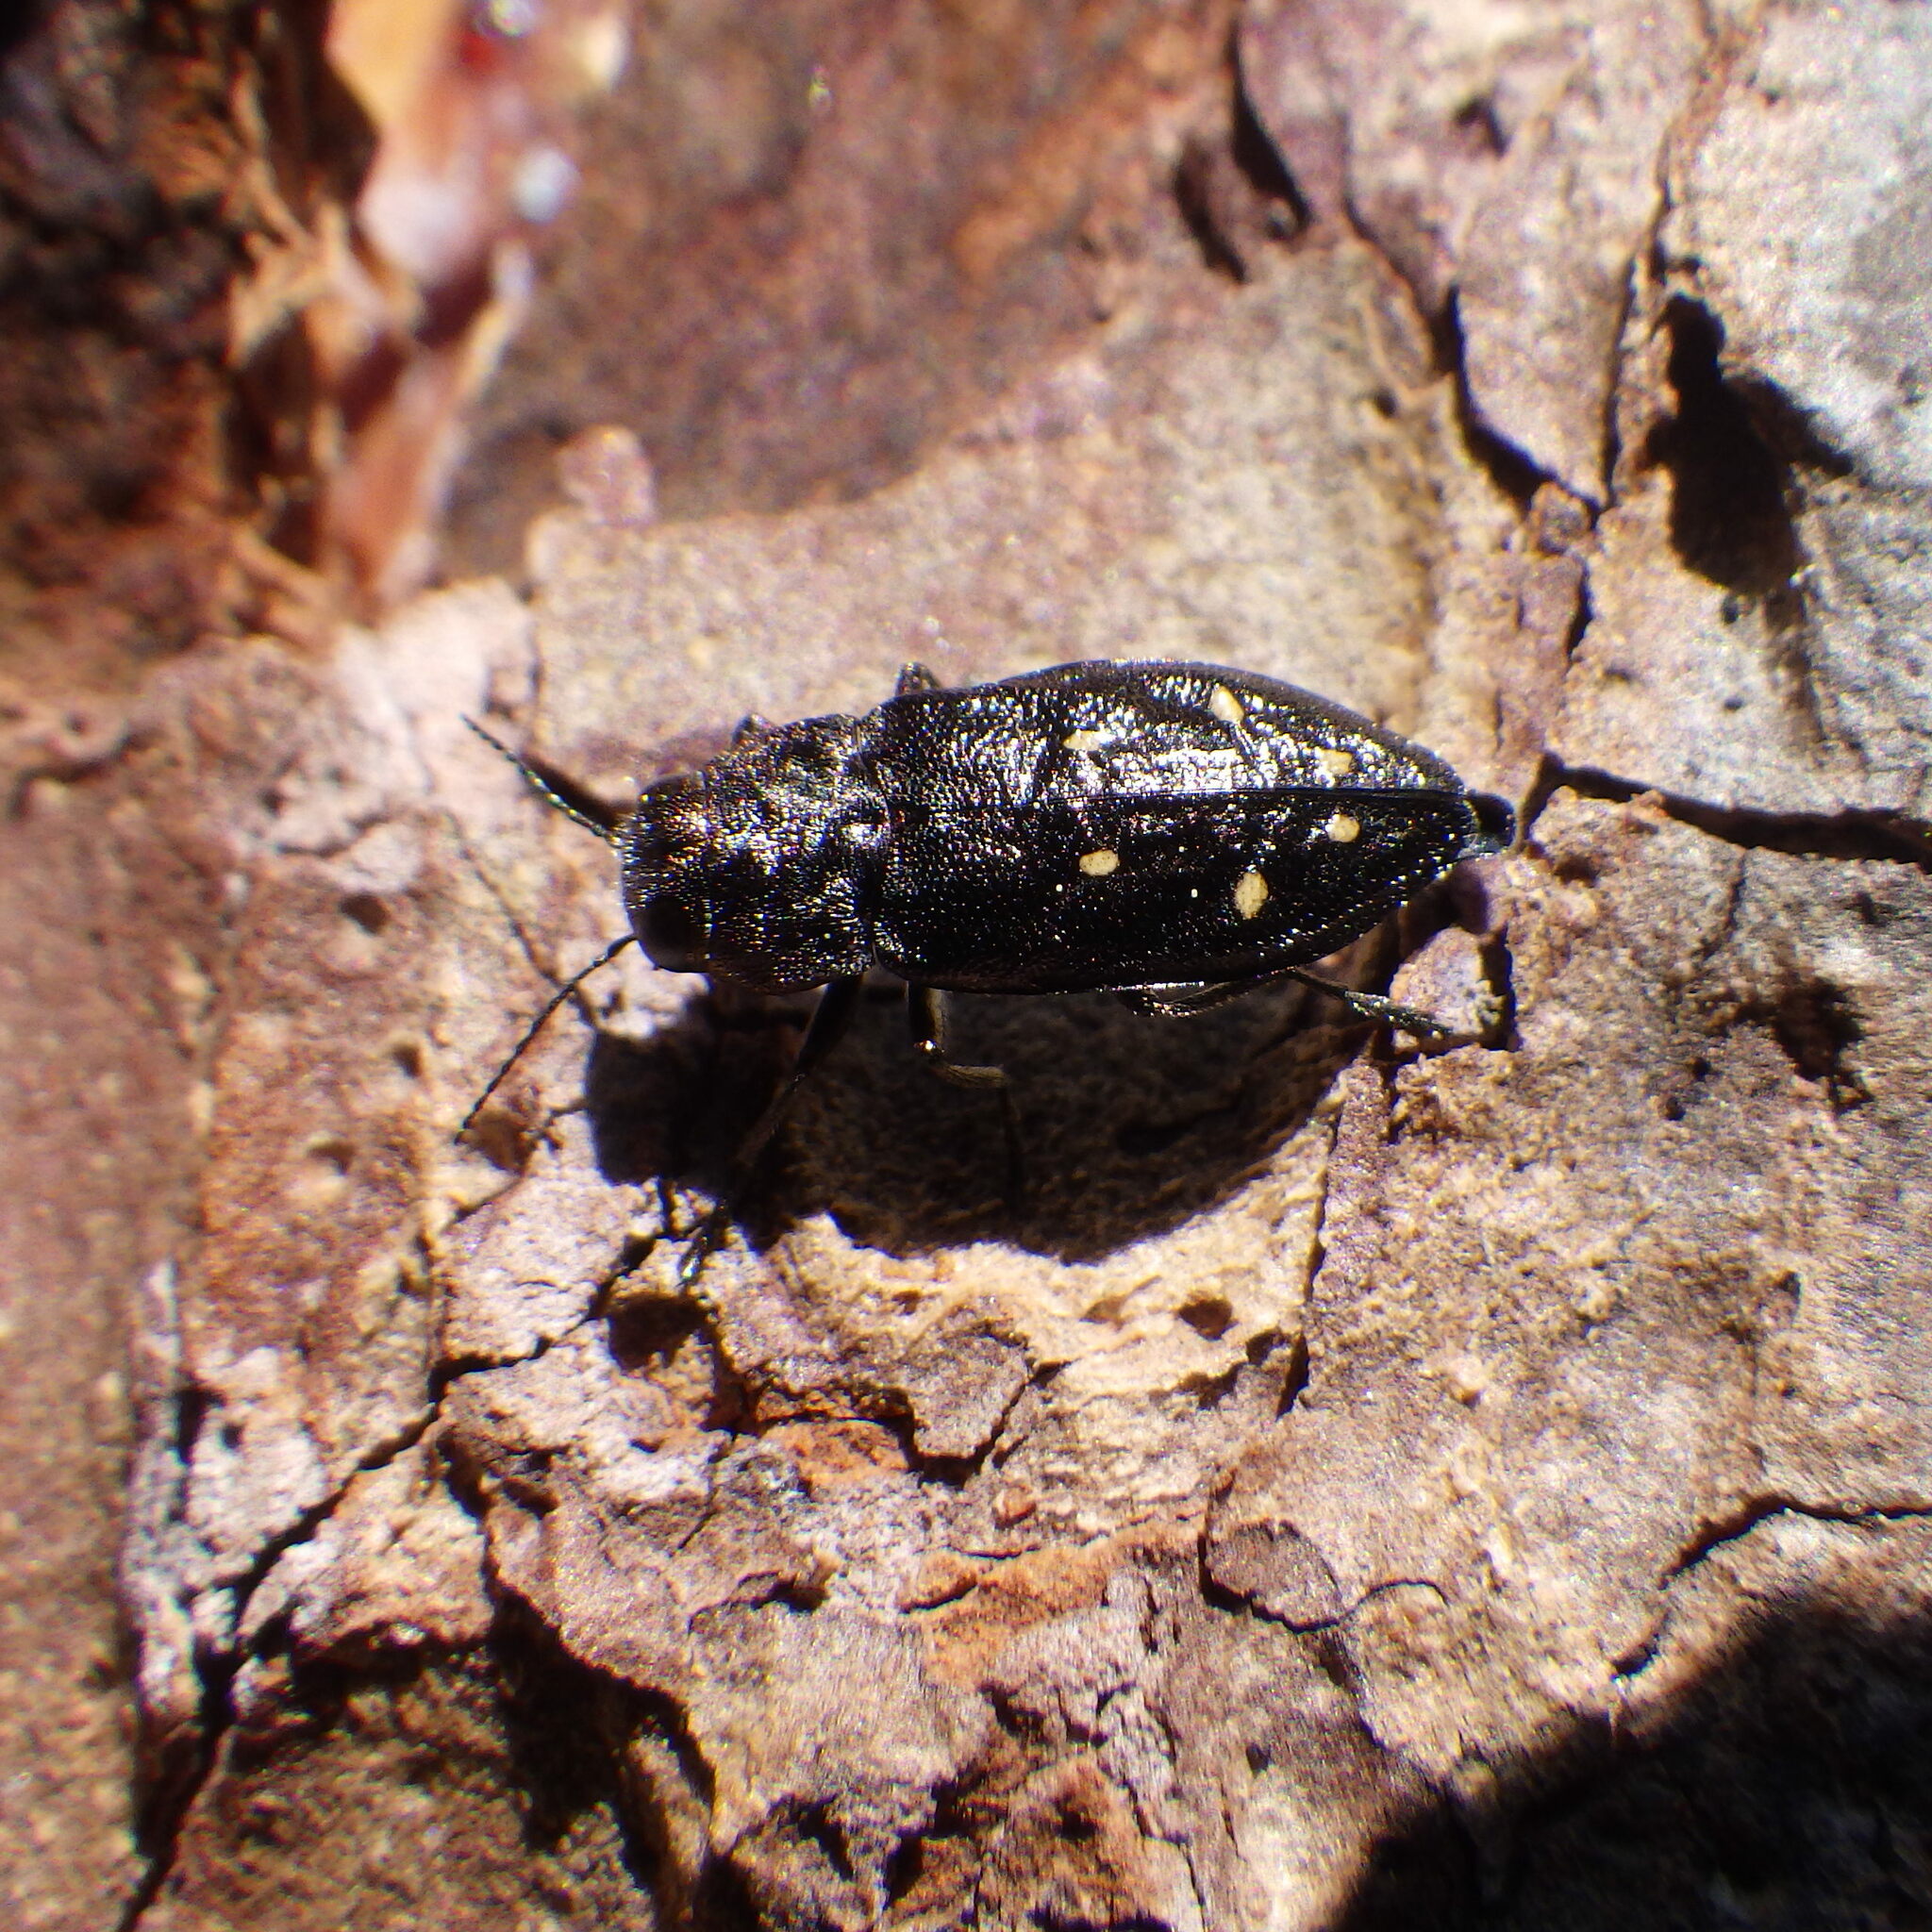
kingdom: Animalia
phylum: Arthropoda
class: Insecta
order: Coleoptera
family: Buprestidae
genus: Phaenops
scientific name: Phaenops fulvoguttata
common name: Hemlock borer
